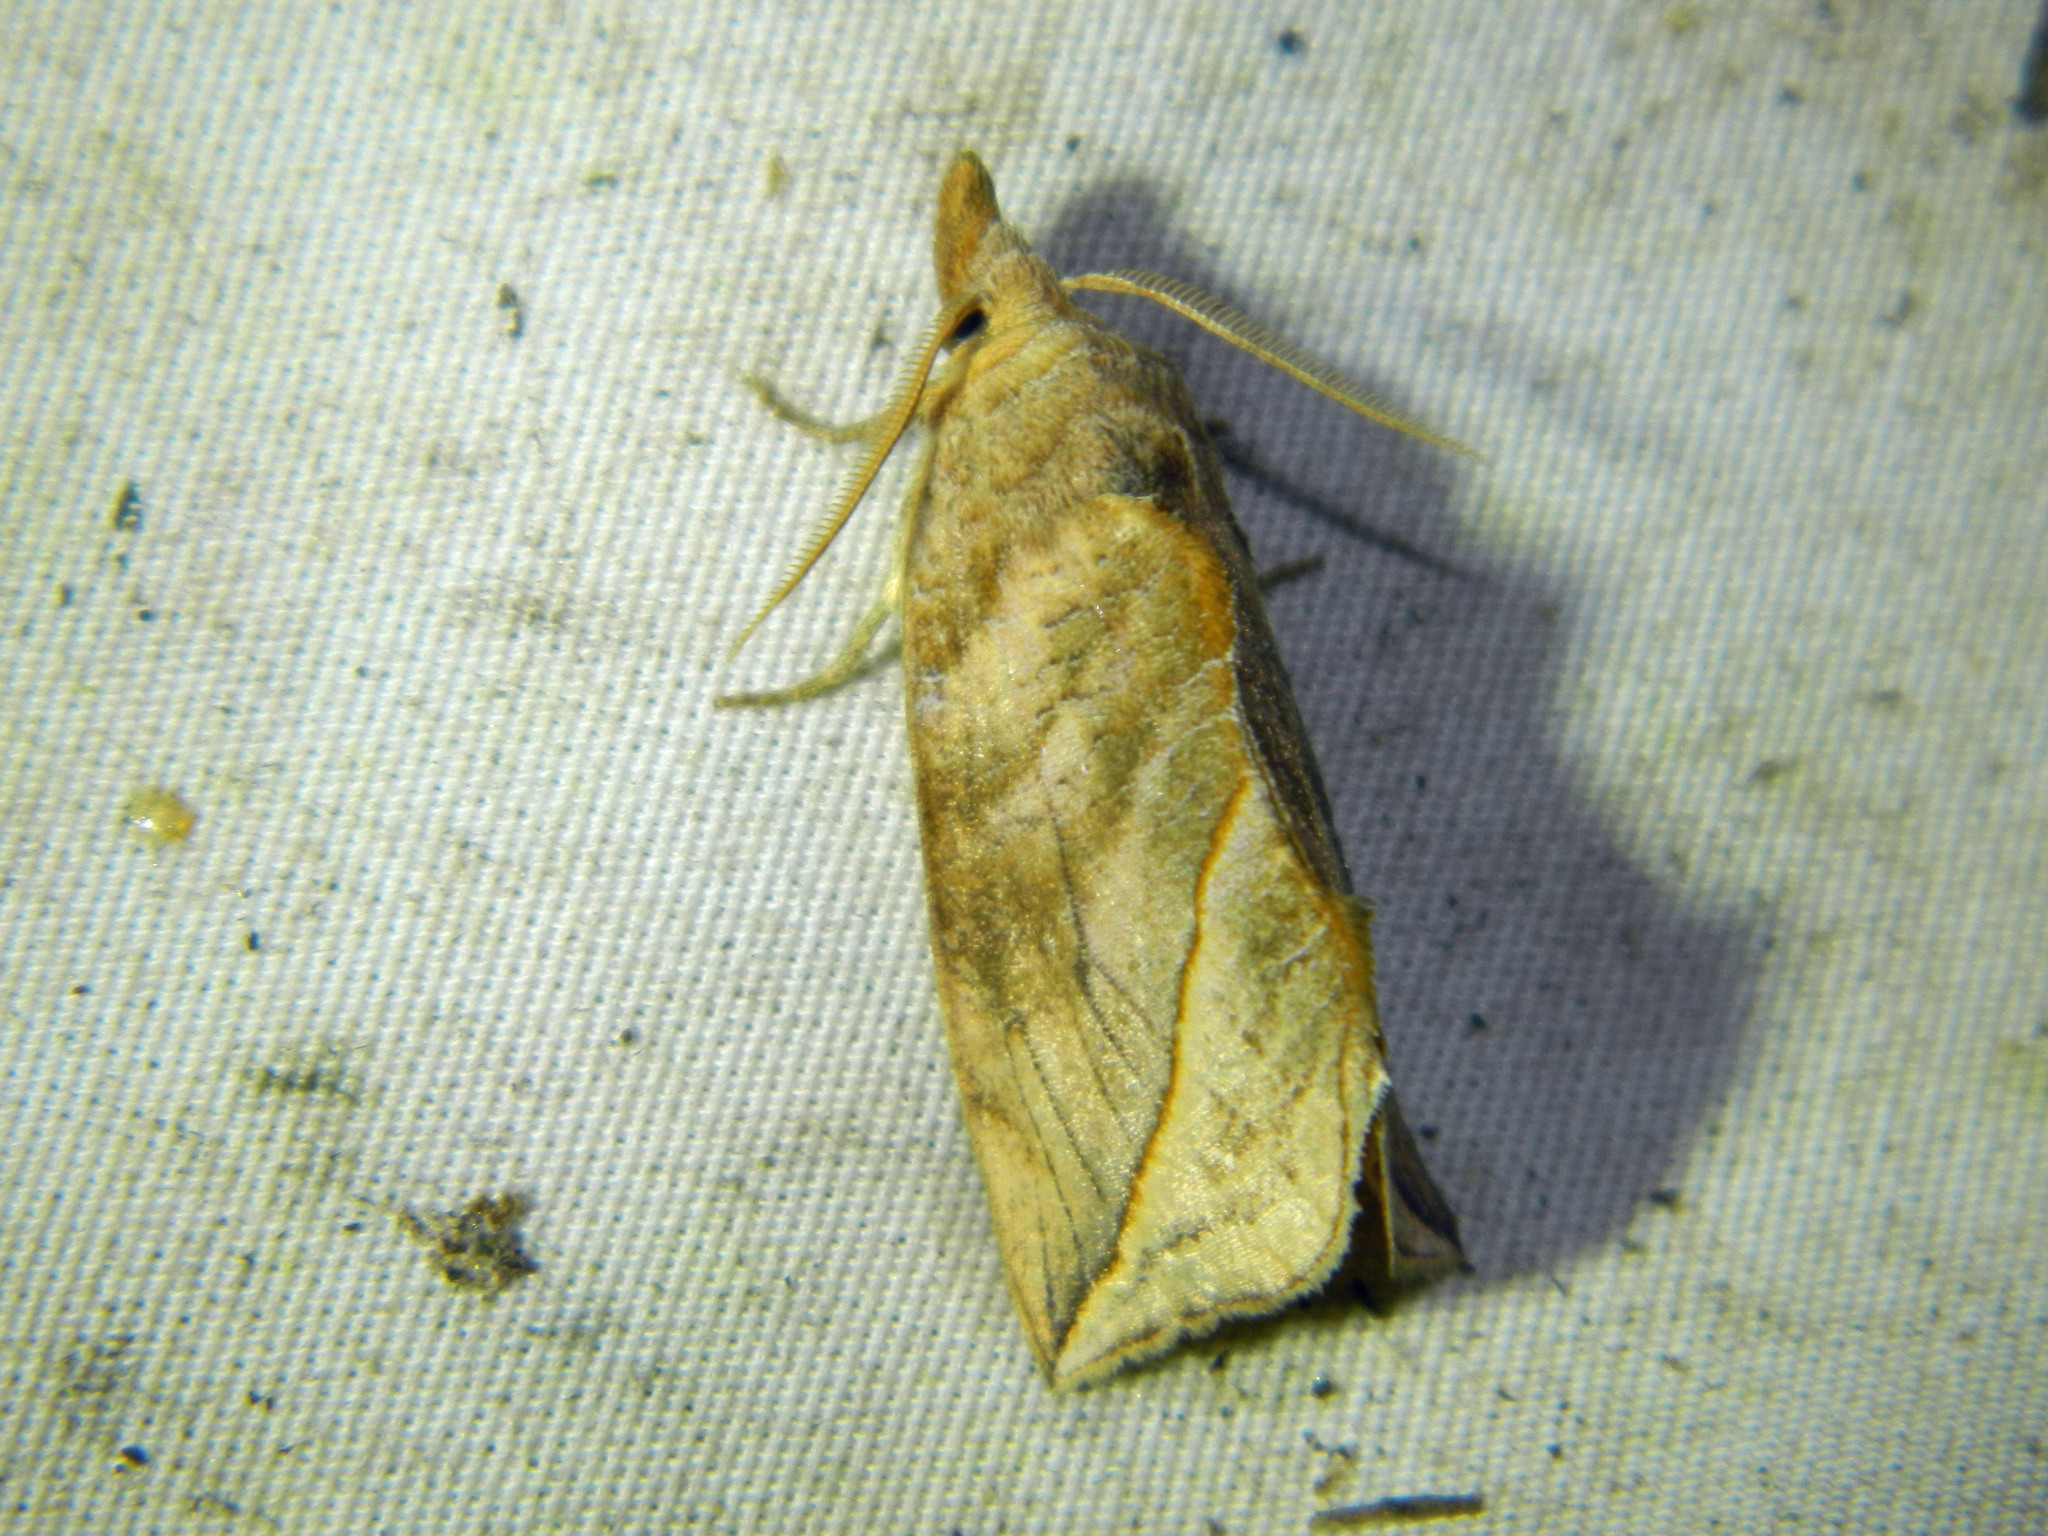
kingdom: Animalia
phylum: Arthropoda
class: Insecta
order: Lepidoptera
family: Erebidae
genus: Calyptra
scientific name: Calyptra canadensis
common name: Canadian owlet
